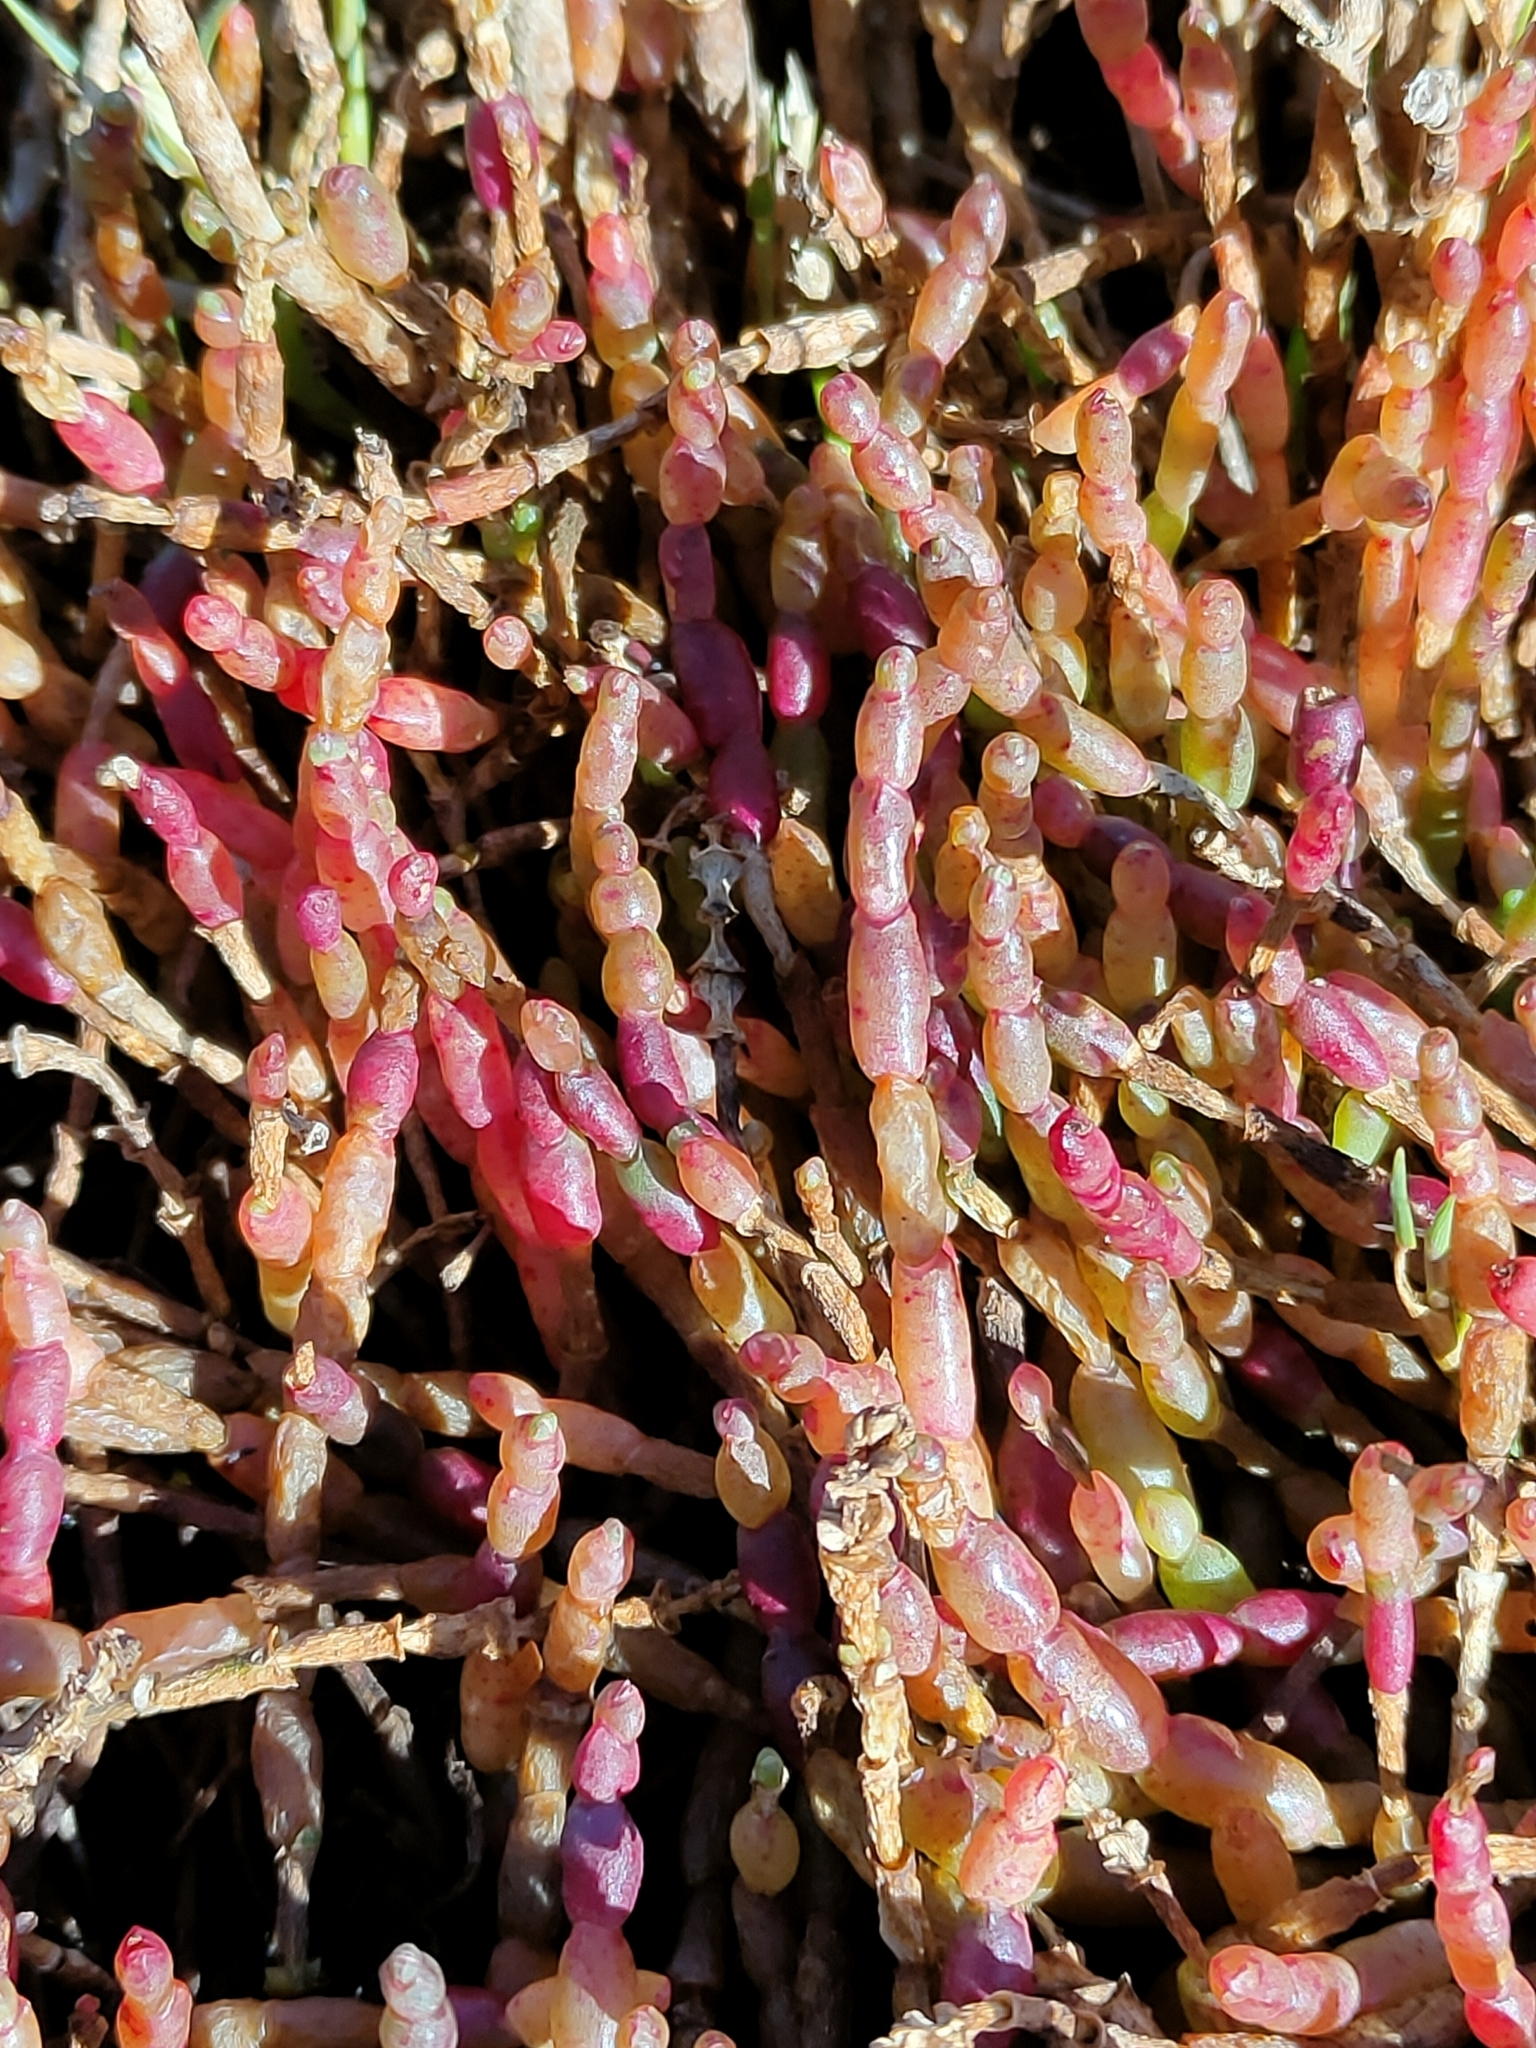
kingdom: Plantae
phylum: Tracheophyta
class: Magnoliopsida
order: Caryophyllales
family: Amaranthaceae
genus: Salicornia
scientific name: Salicornia quinqueflora
